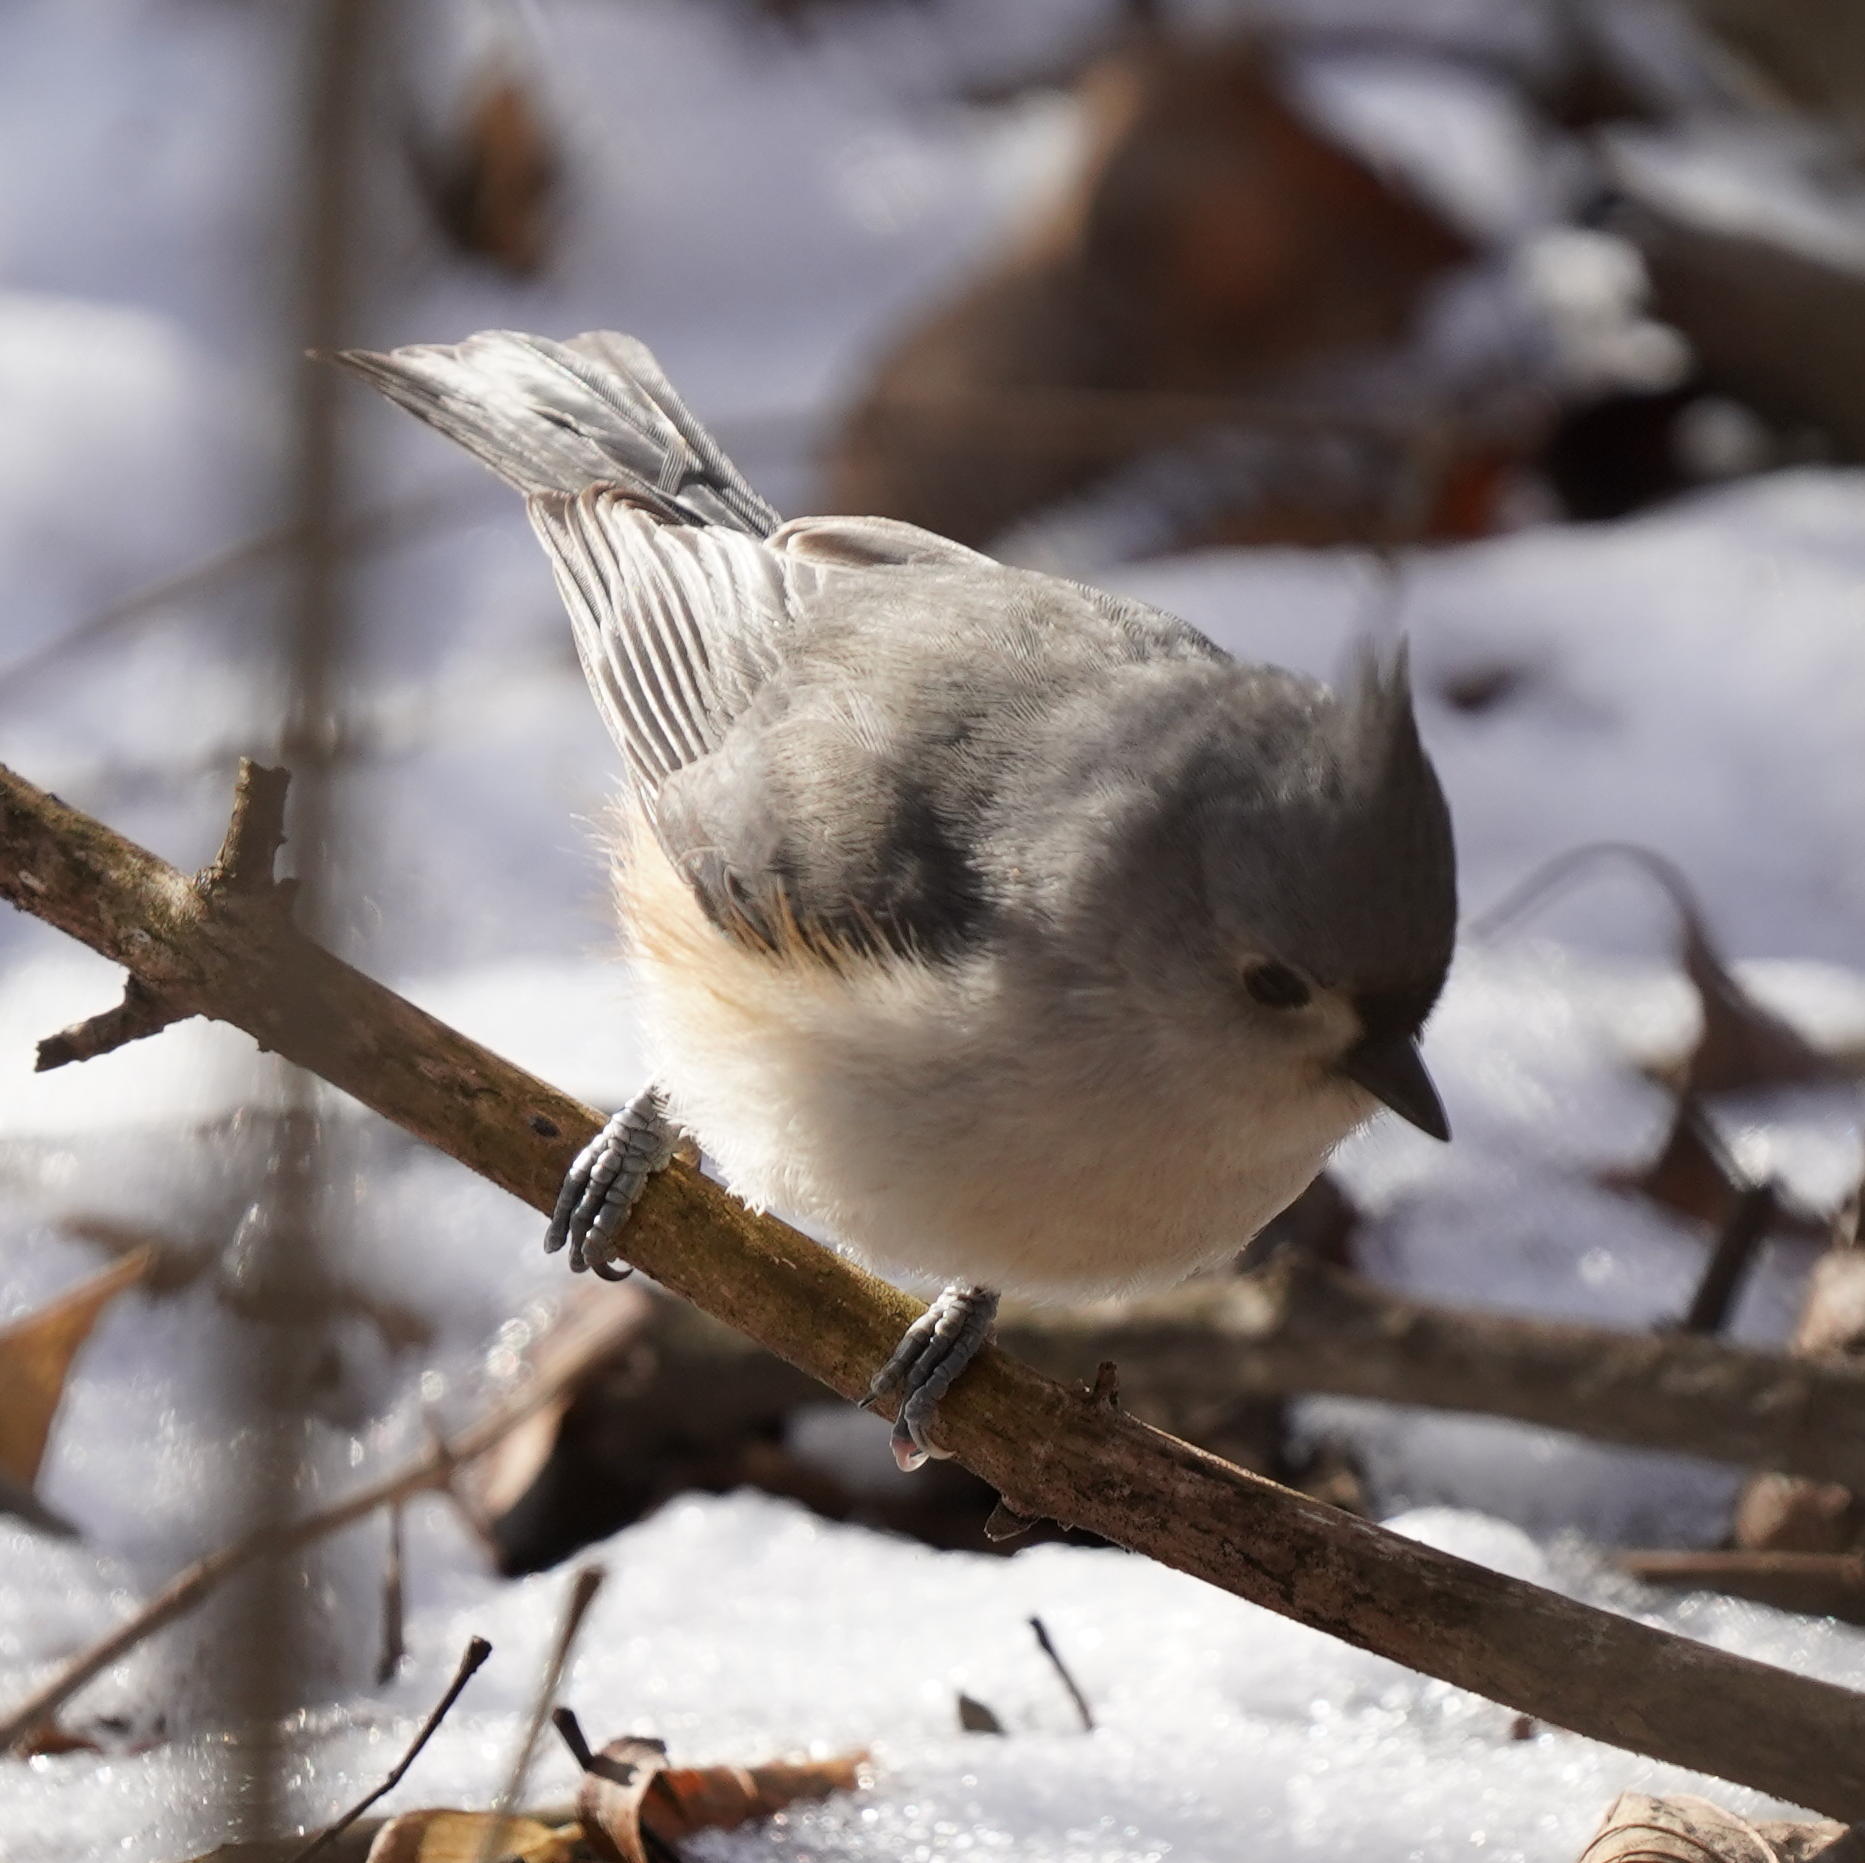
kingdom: Animalia
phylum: Chordata
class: Aves
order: Passeriformes
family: Paridae
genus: Baeolophus
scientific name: Baeolophus bicolor
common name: Tufted titmouse
